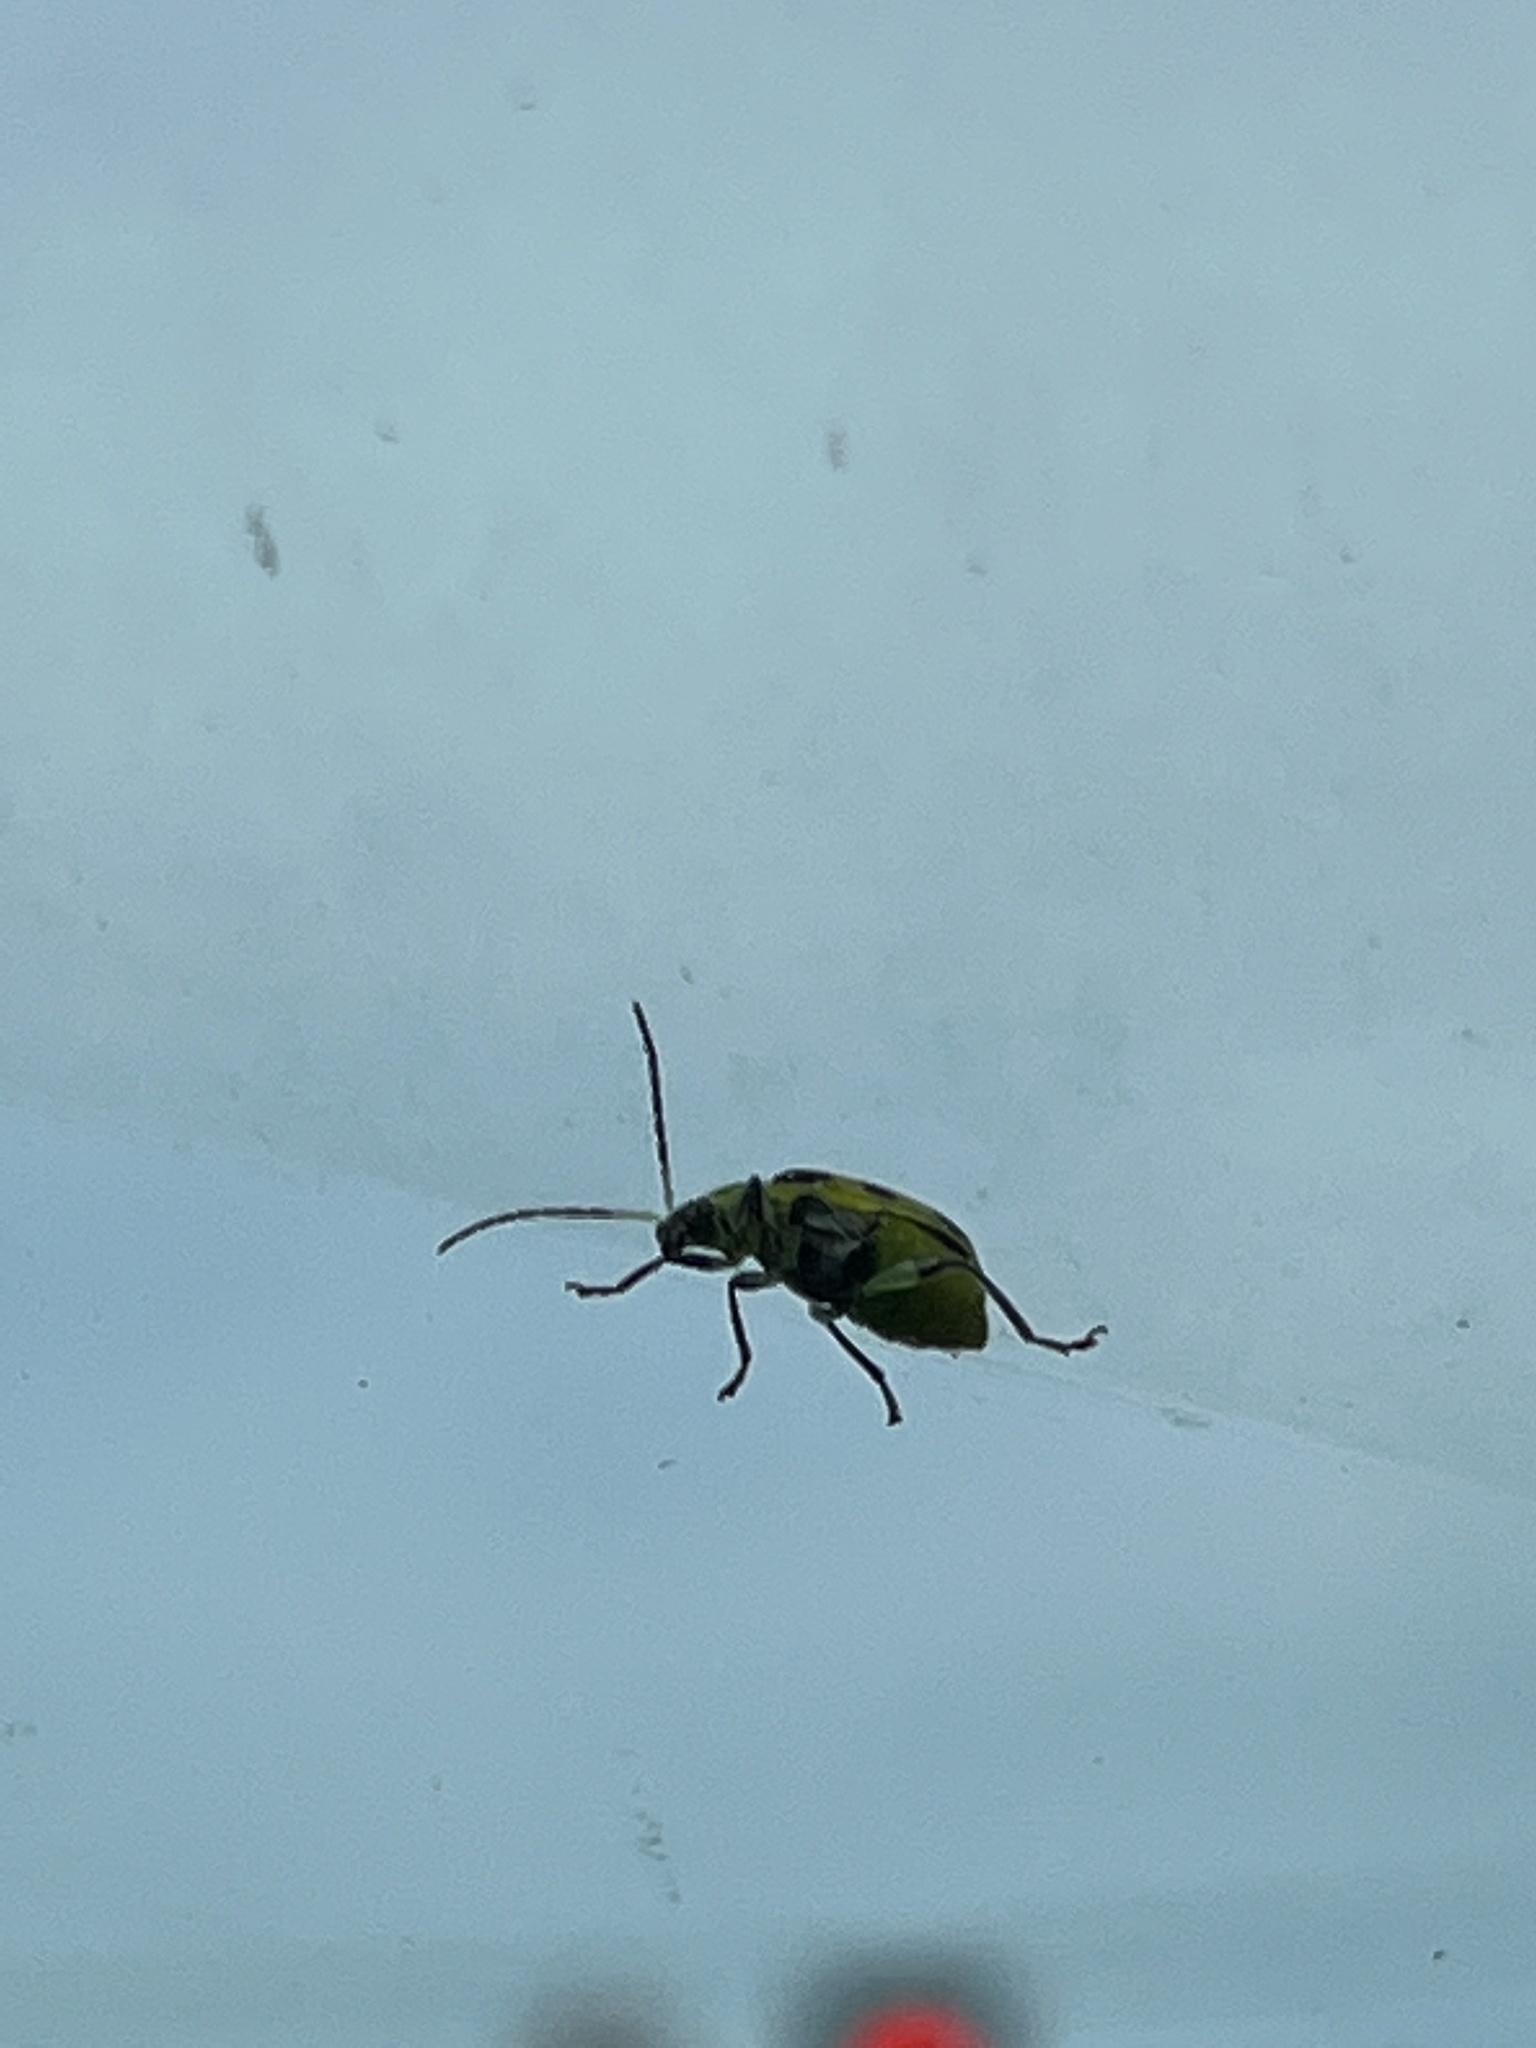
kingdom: Animalia
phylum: Arthropoda
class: Insecta
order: Coleoptera
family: Chrysomelidae
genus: Diabrotica
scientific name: Diabrotica undecimpunctata
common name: Spotted cucumber beetle
